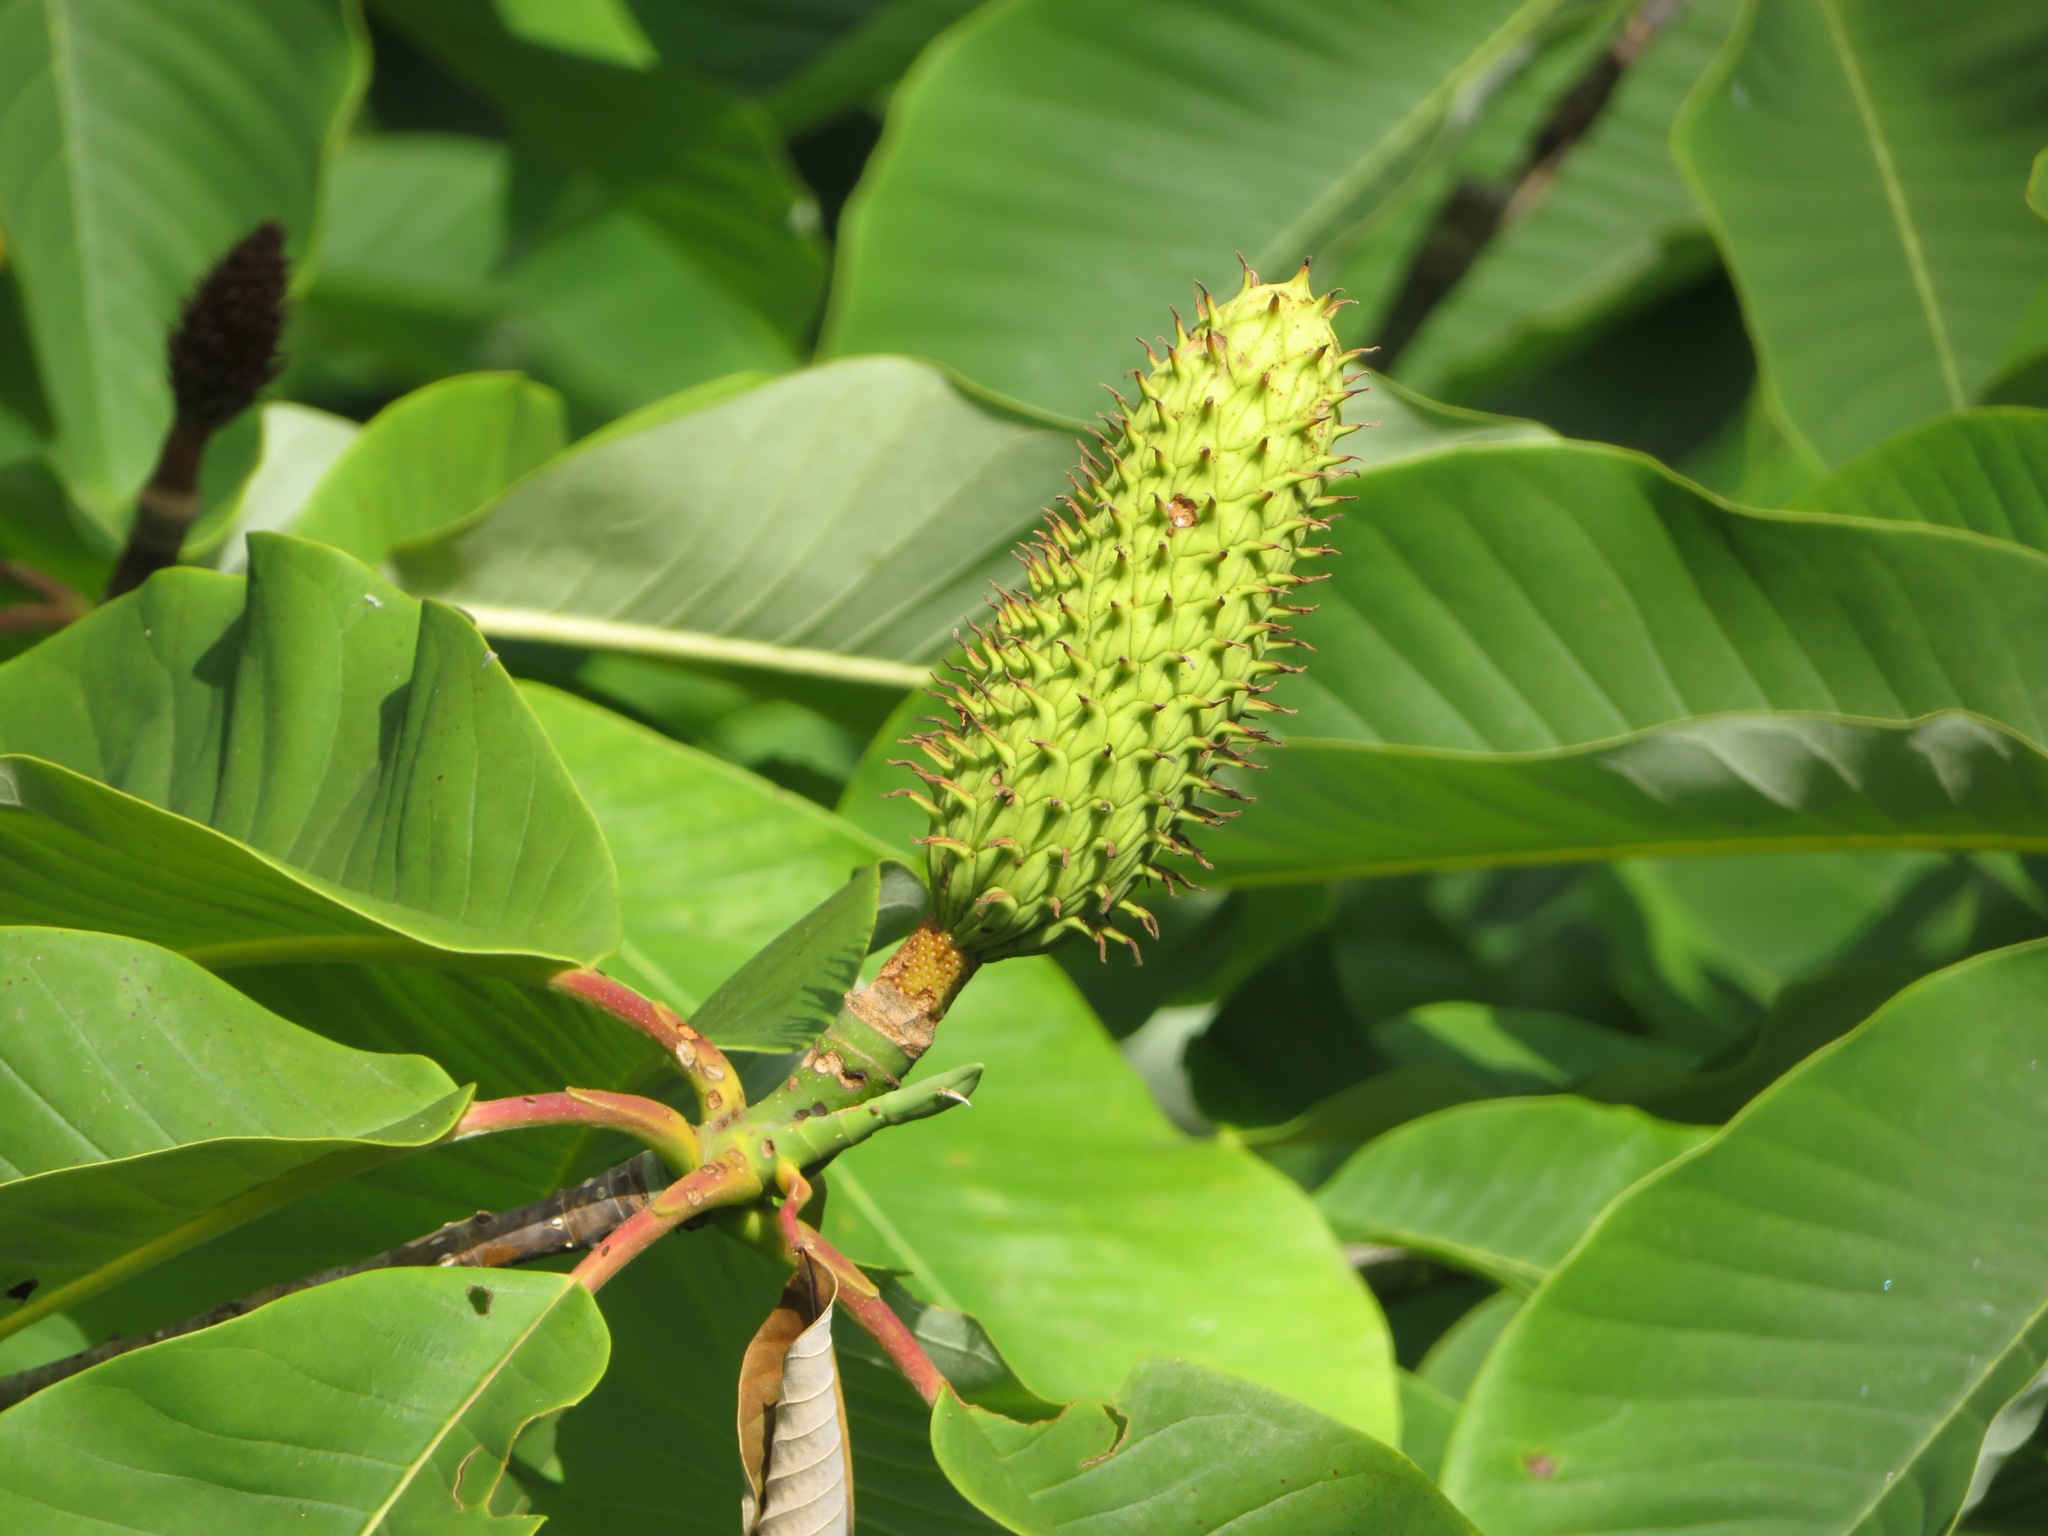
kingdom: Plantae
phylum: Tracheophyta
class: Magnoliopsida
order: Magnoliales
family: Magnoliaceae
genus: Magnolia
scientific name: Magnolia obovata
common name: Japanese whitebark magnolia
